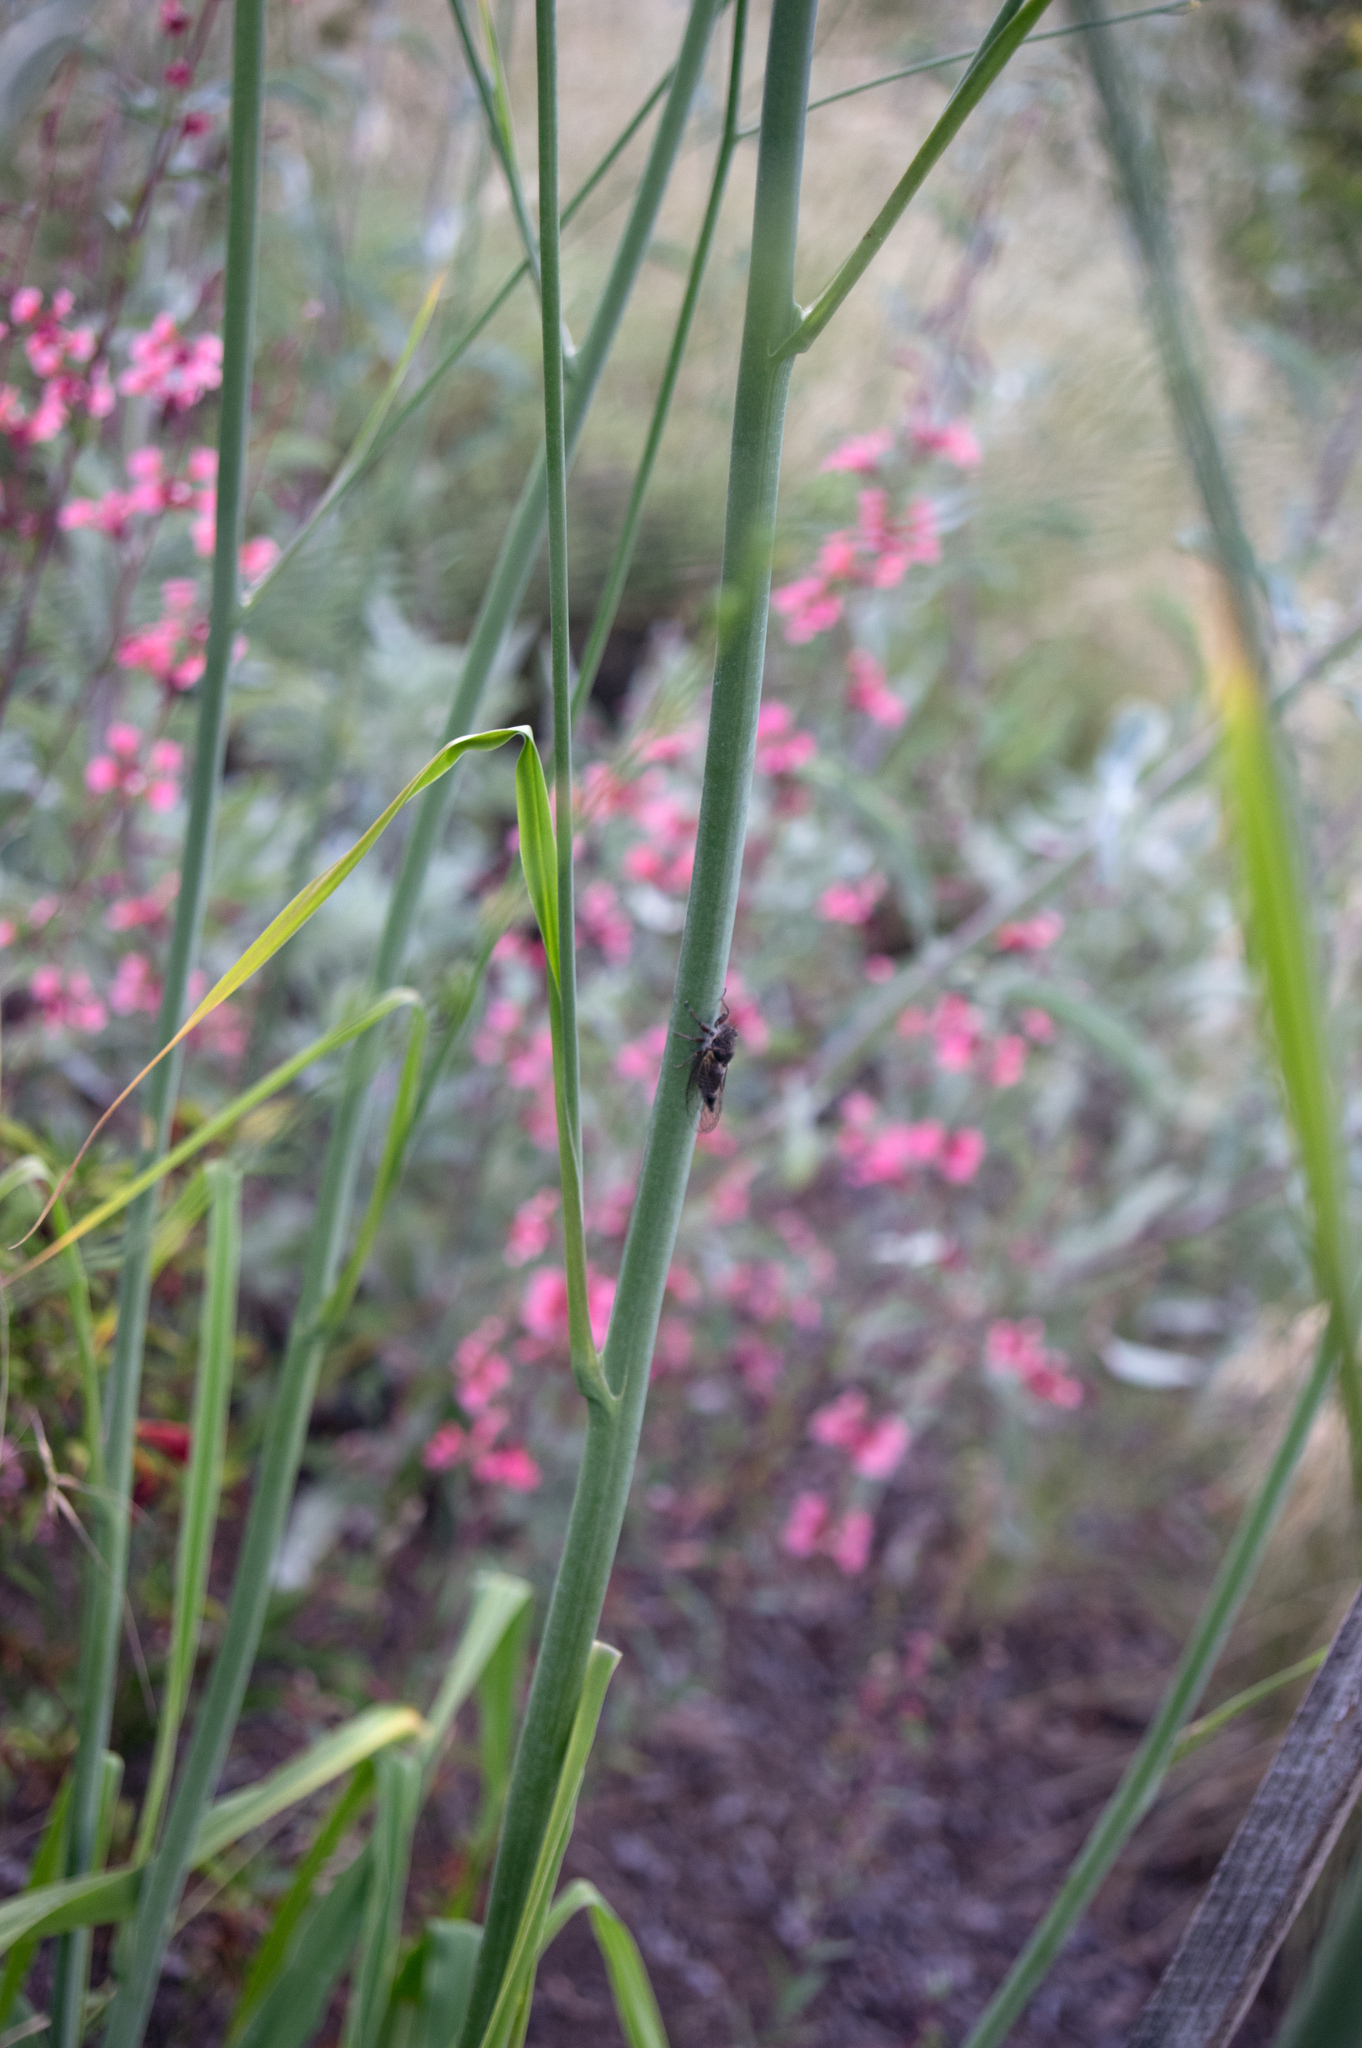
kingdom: Animalia
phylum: Arthropoda
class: Insecta
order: Hemiptera
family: Cicadidae
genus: Platypedia
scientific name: Platypedia intermedia
